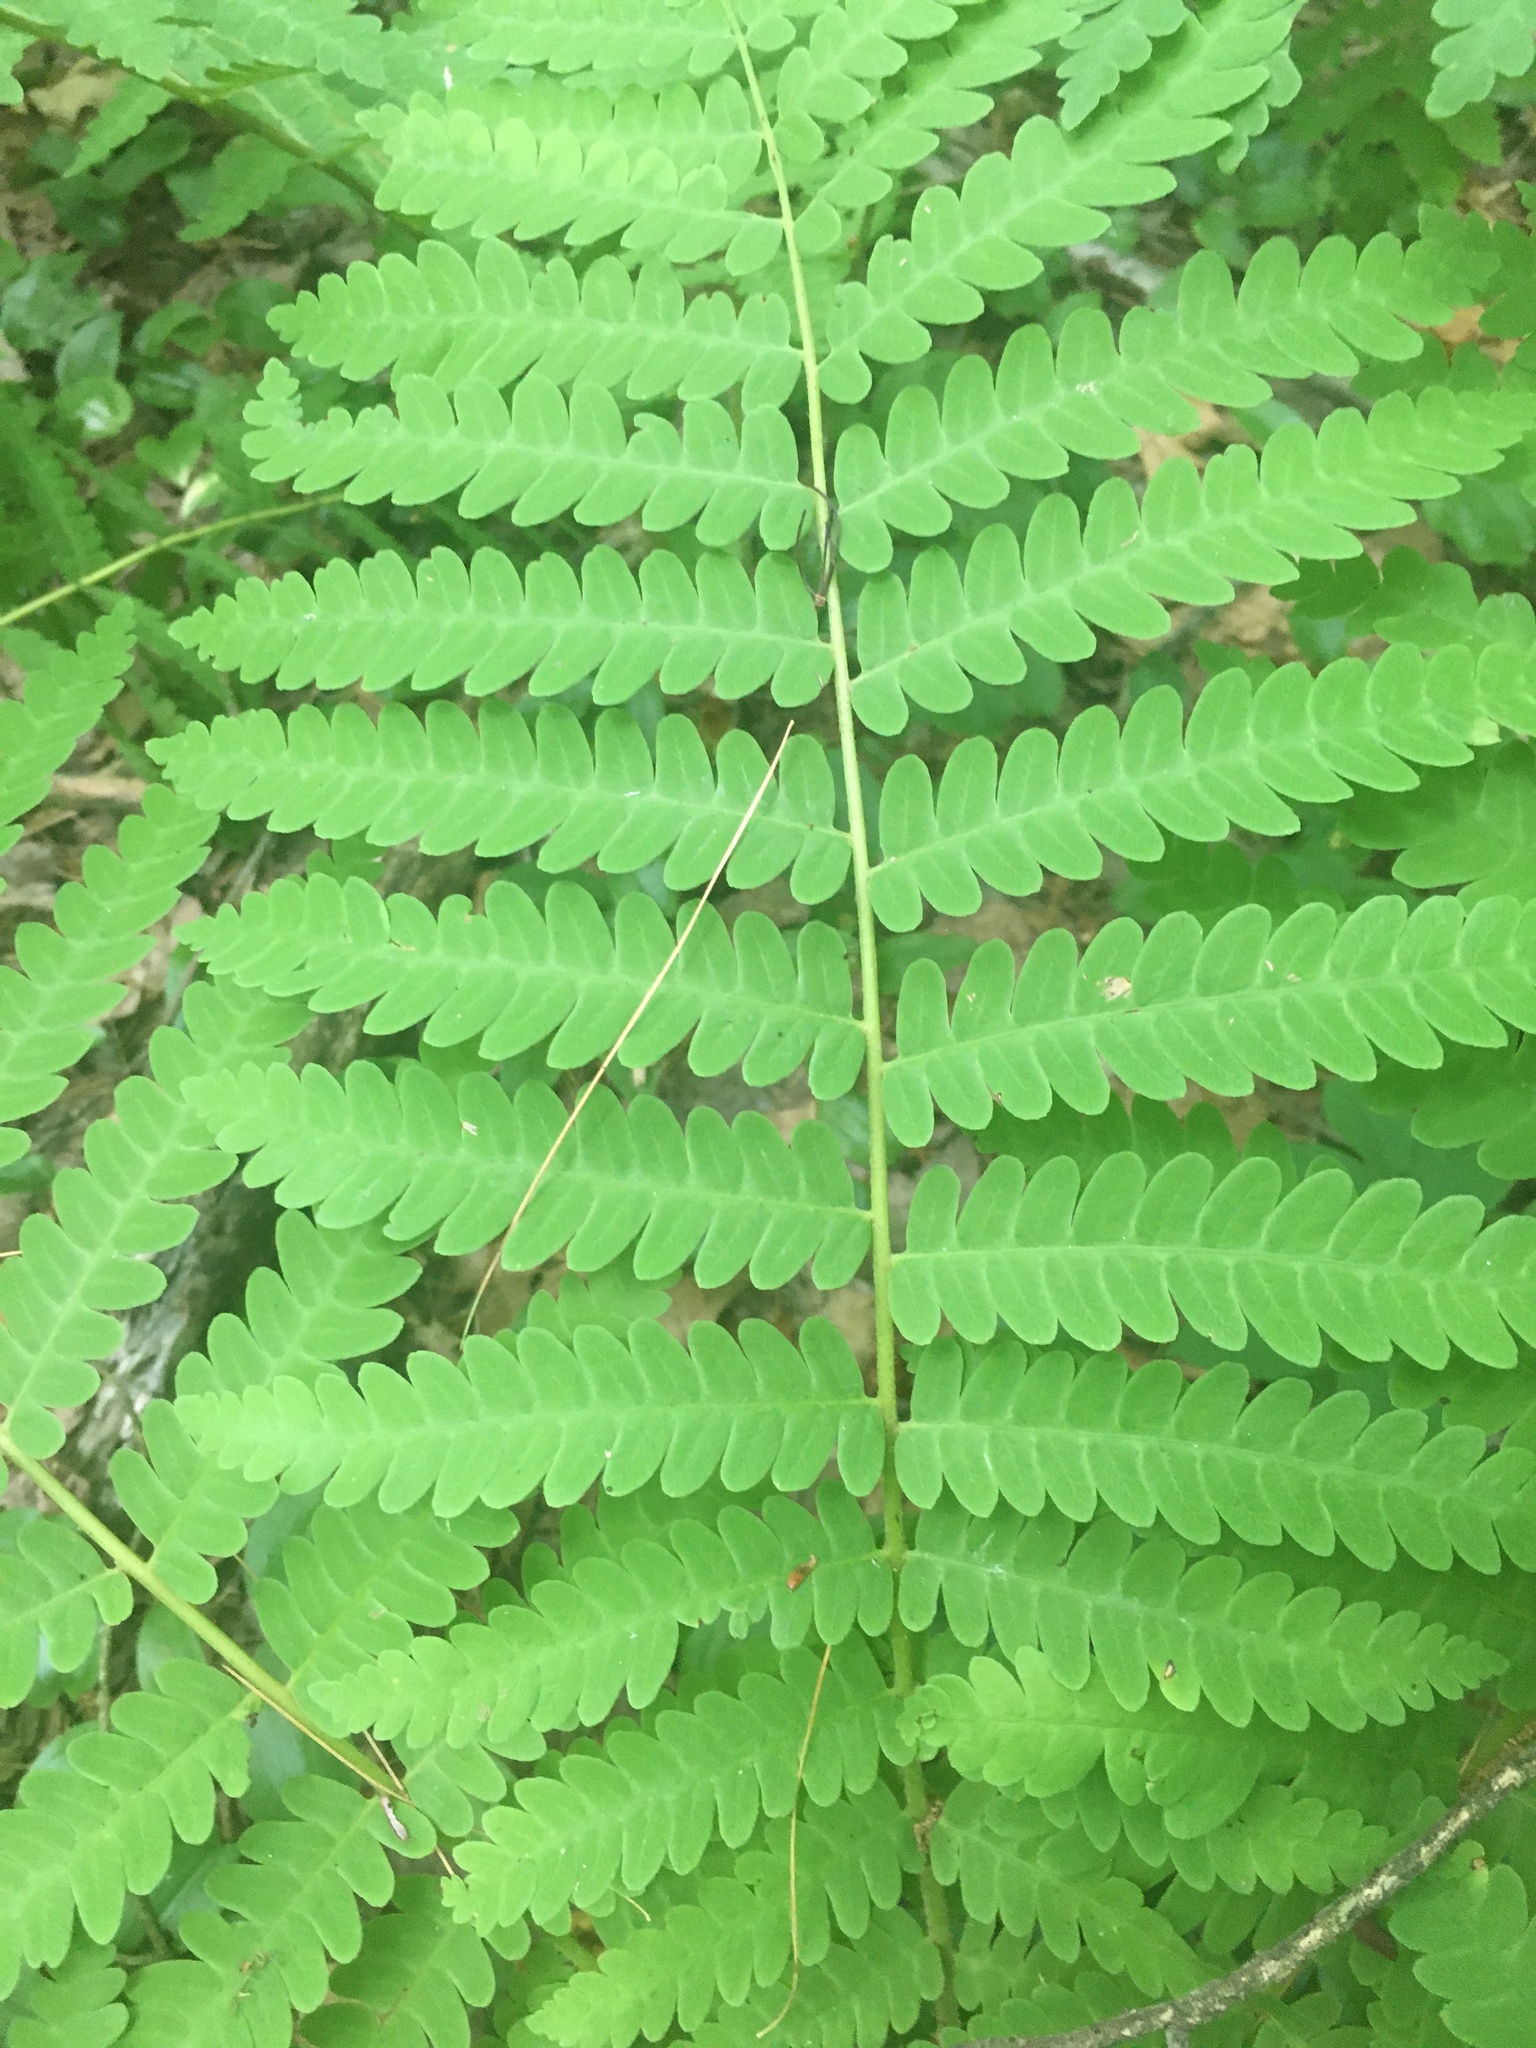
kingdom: Plantae
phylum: Tracheophyta
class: Polypodiopsida
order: Osmundales
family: Osmundaceae
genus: Claytosmunda
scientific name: Claytosmunda claytoniana
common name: Clayton's fern
